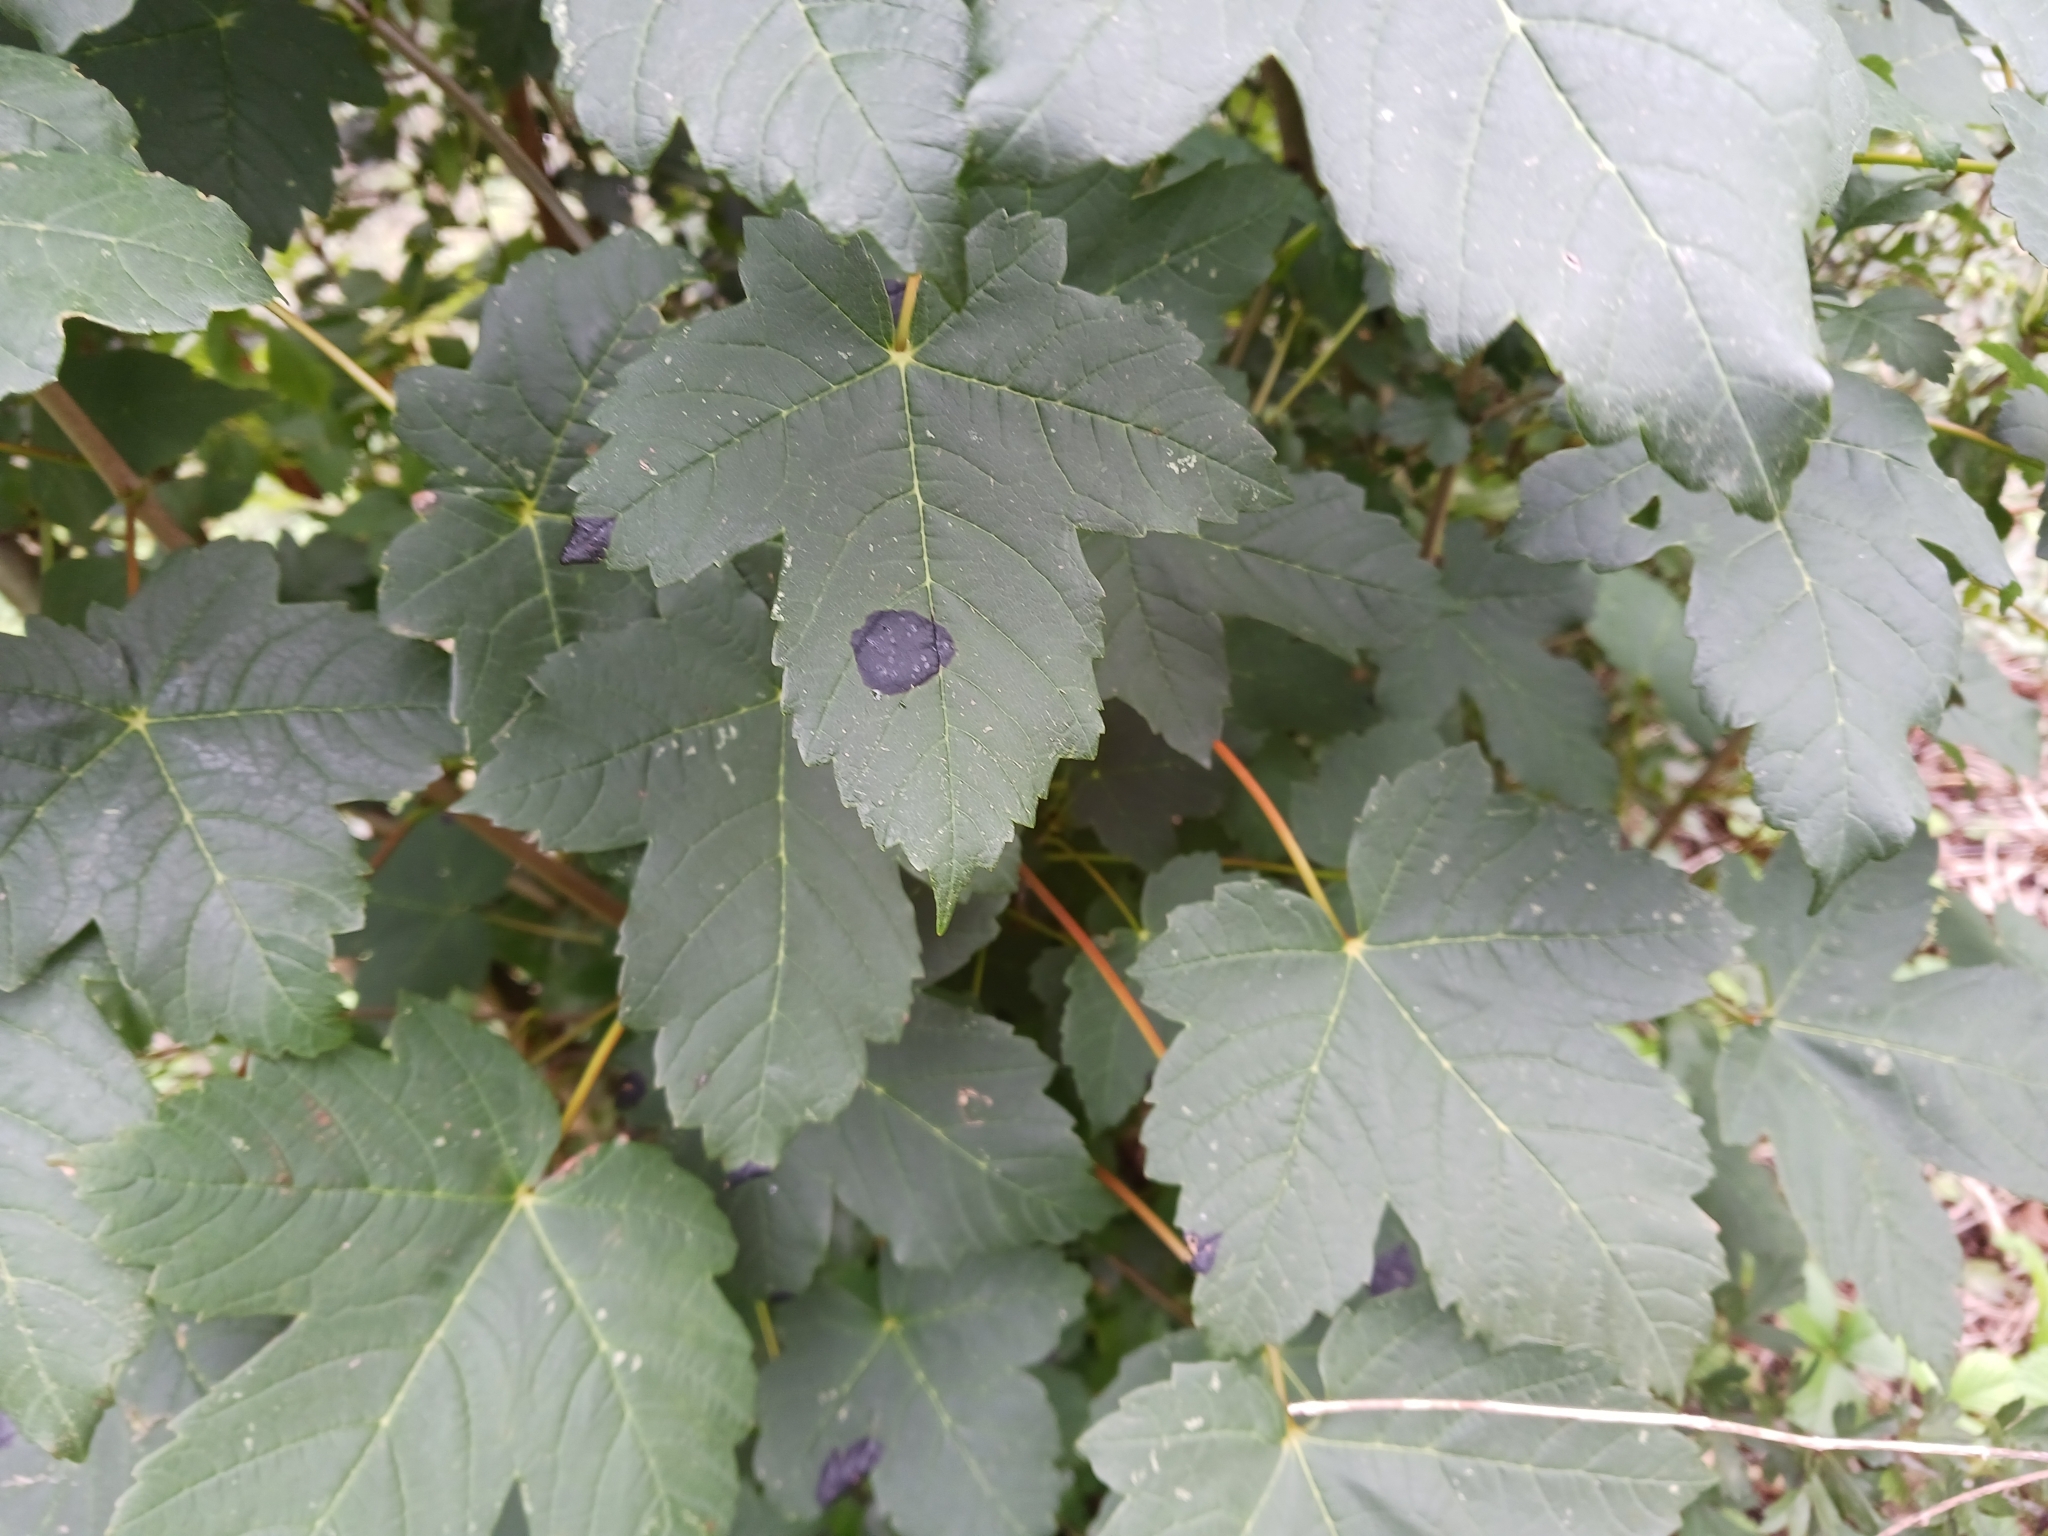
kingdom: Fungi
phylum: Ascomycota
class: Leotiomycetes
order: Rhytismatales
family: Rhytismataceae
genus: Rhytisma
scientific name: Rhytisma acerinum
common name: European tar spot
